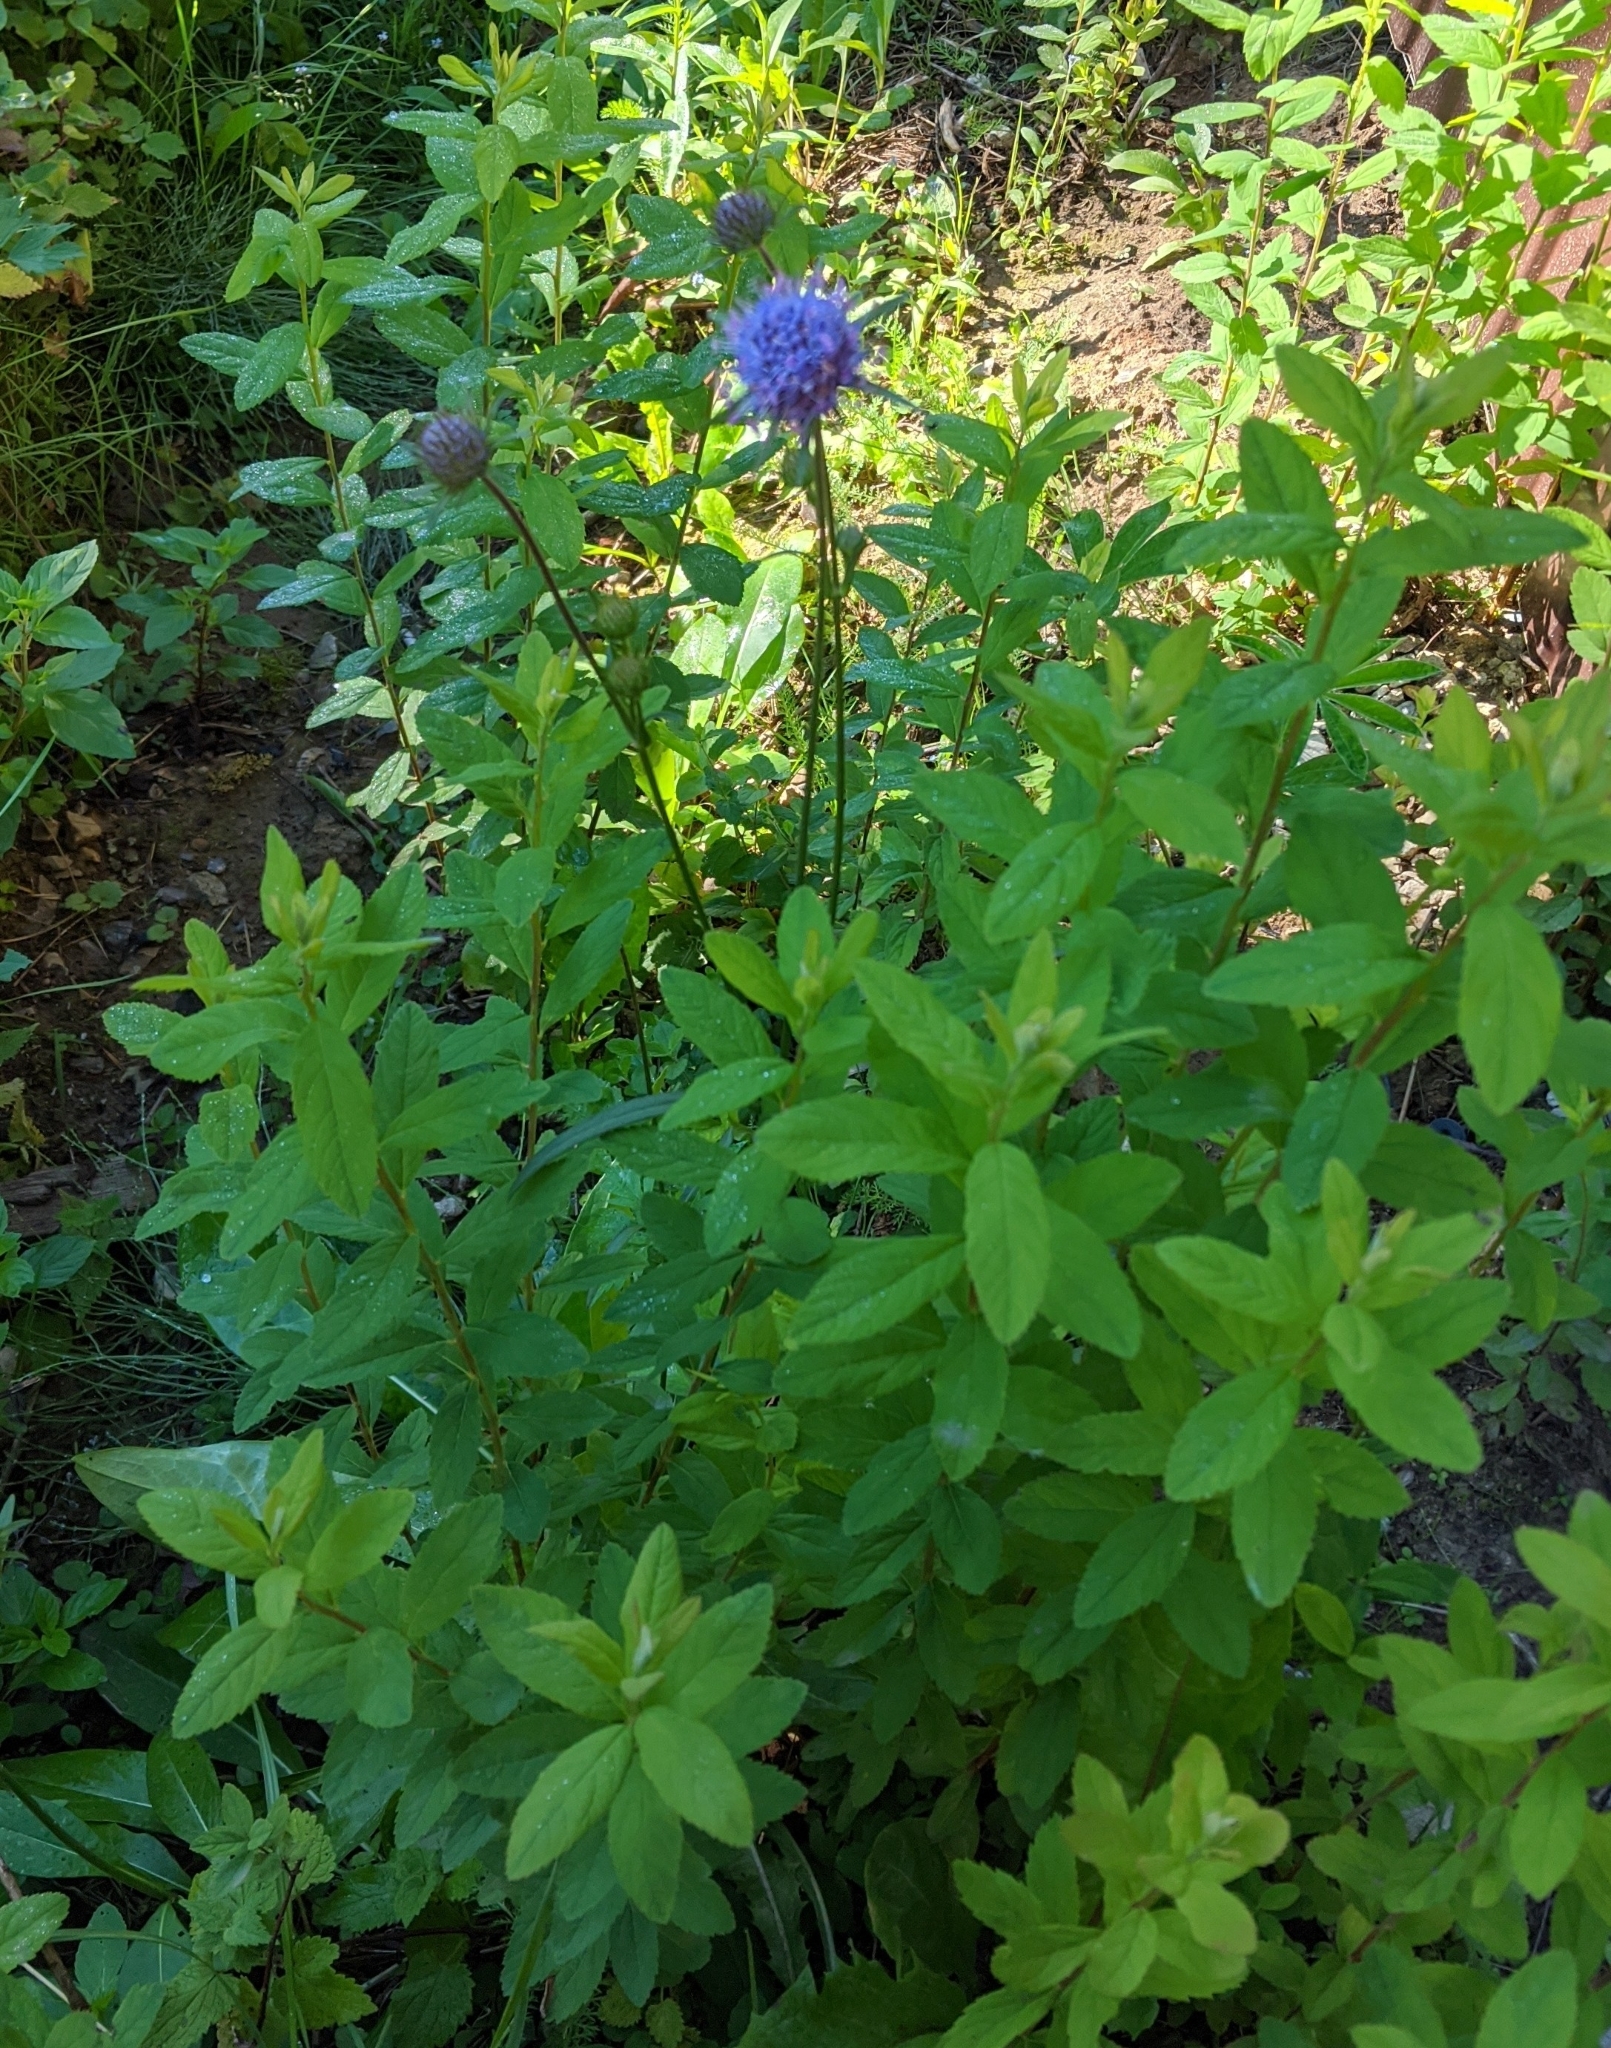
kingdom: Plantae
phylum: Tracheophyta
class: Magnoliopsida
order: Dipsacales
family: Caprifoliaceae
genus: Succisa
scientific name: Succisa pratensis
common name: Devil's-bit
